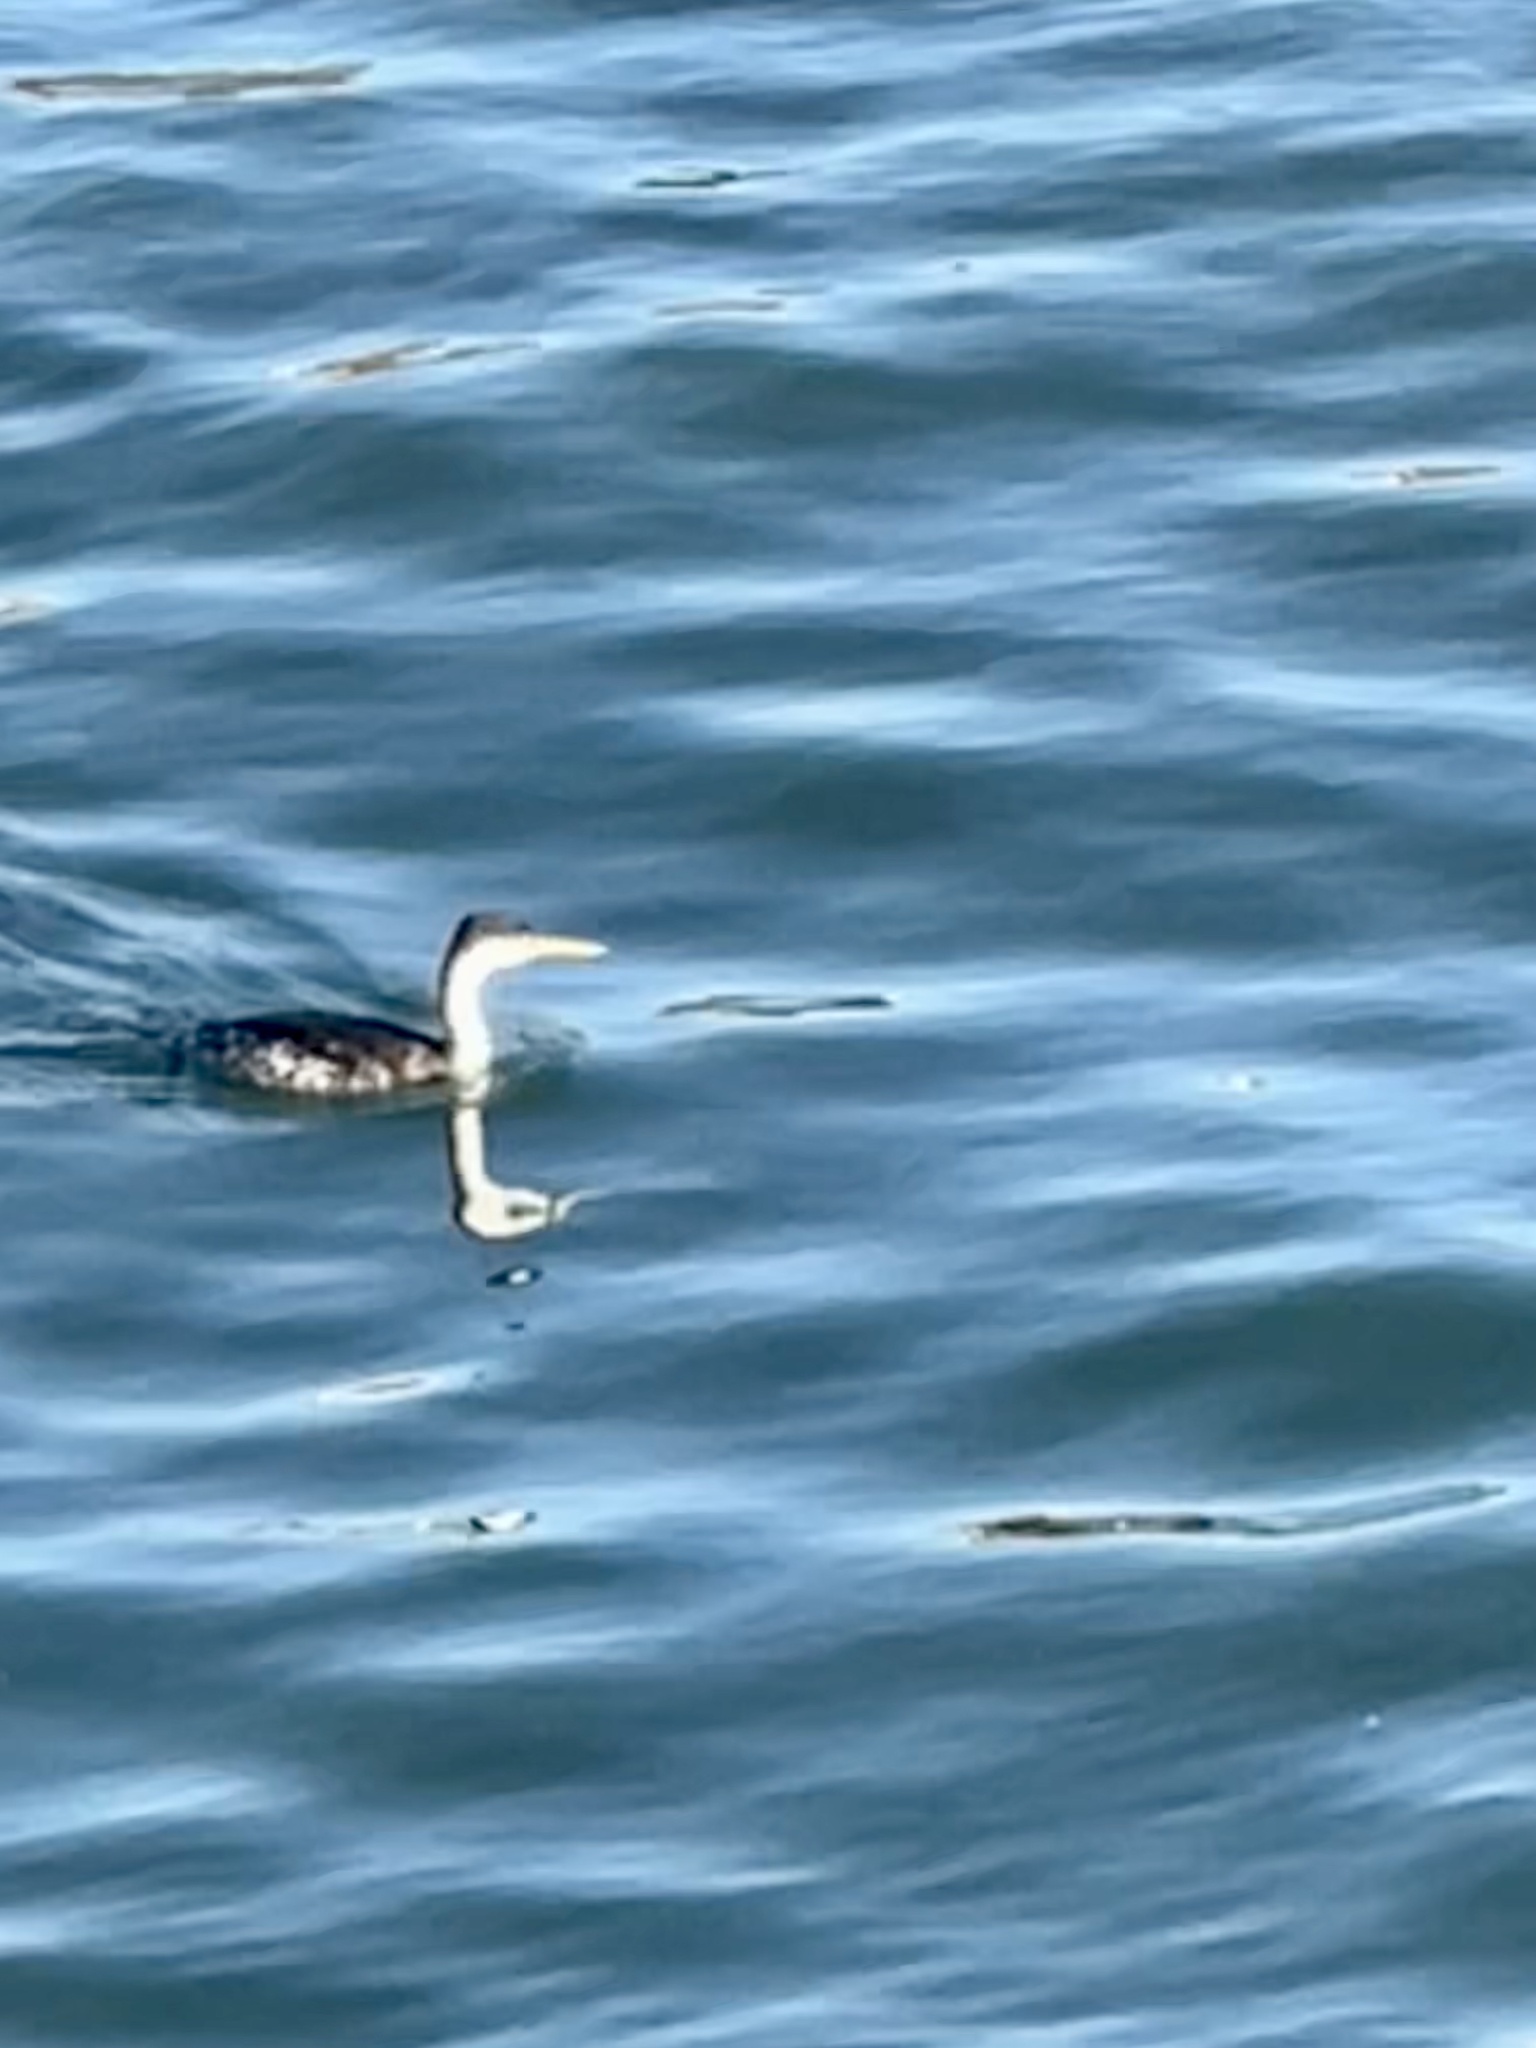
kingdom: Animalia
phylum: Chordata
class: Aves
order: Podicipediformes
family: Podicipedidae
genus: Aechmophorus
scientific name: Aechmophorus occidentalis
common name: Western grebe
